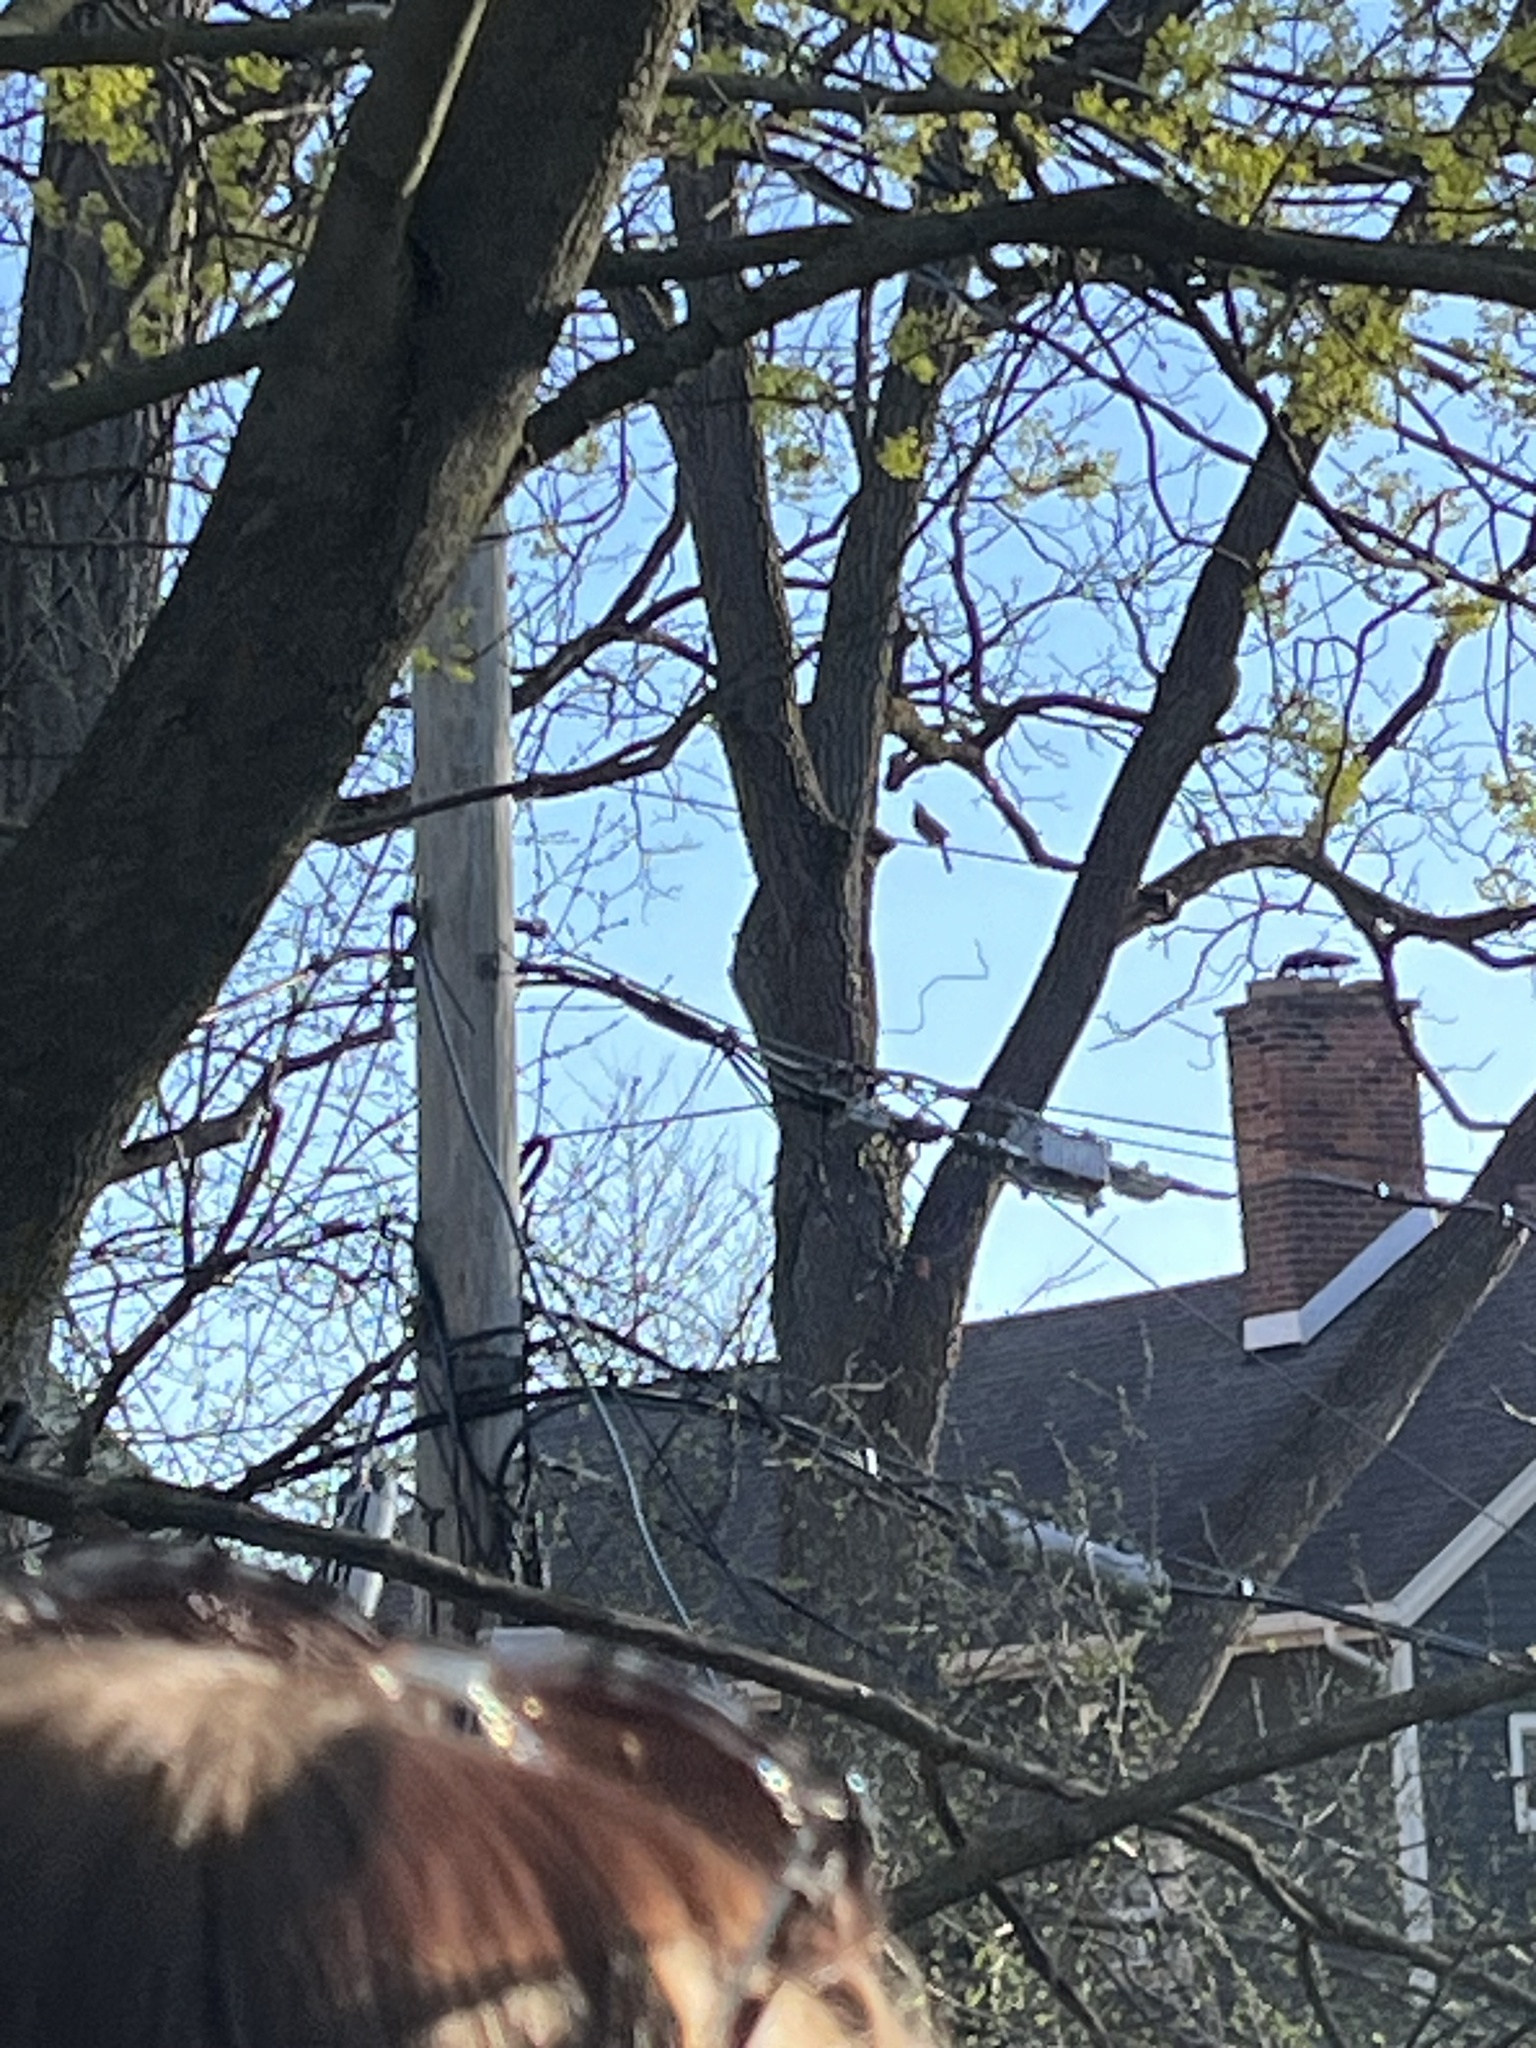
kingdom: Animalia
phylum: Chordata
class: Aves
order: Passeriformes
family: Cardinalidae
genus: Cardinalis
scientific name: Cardinalis cardinalis
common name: Northern cardinal
